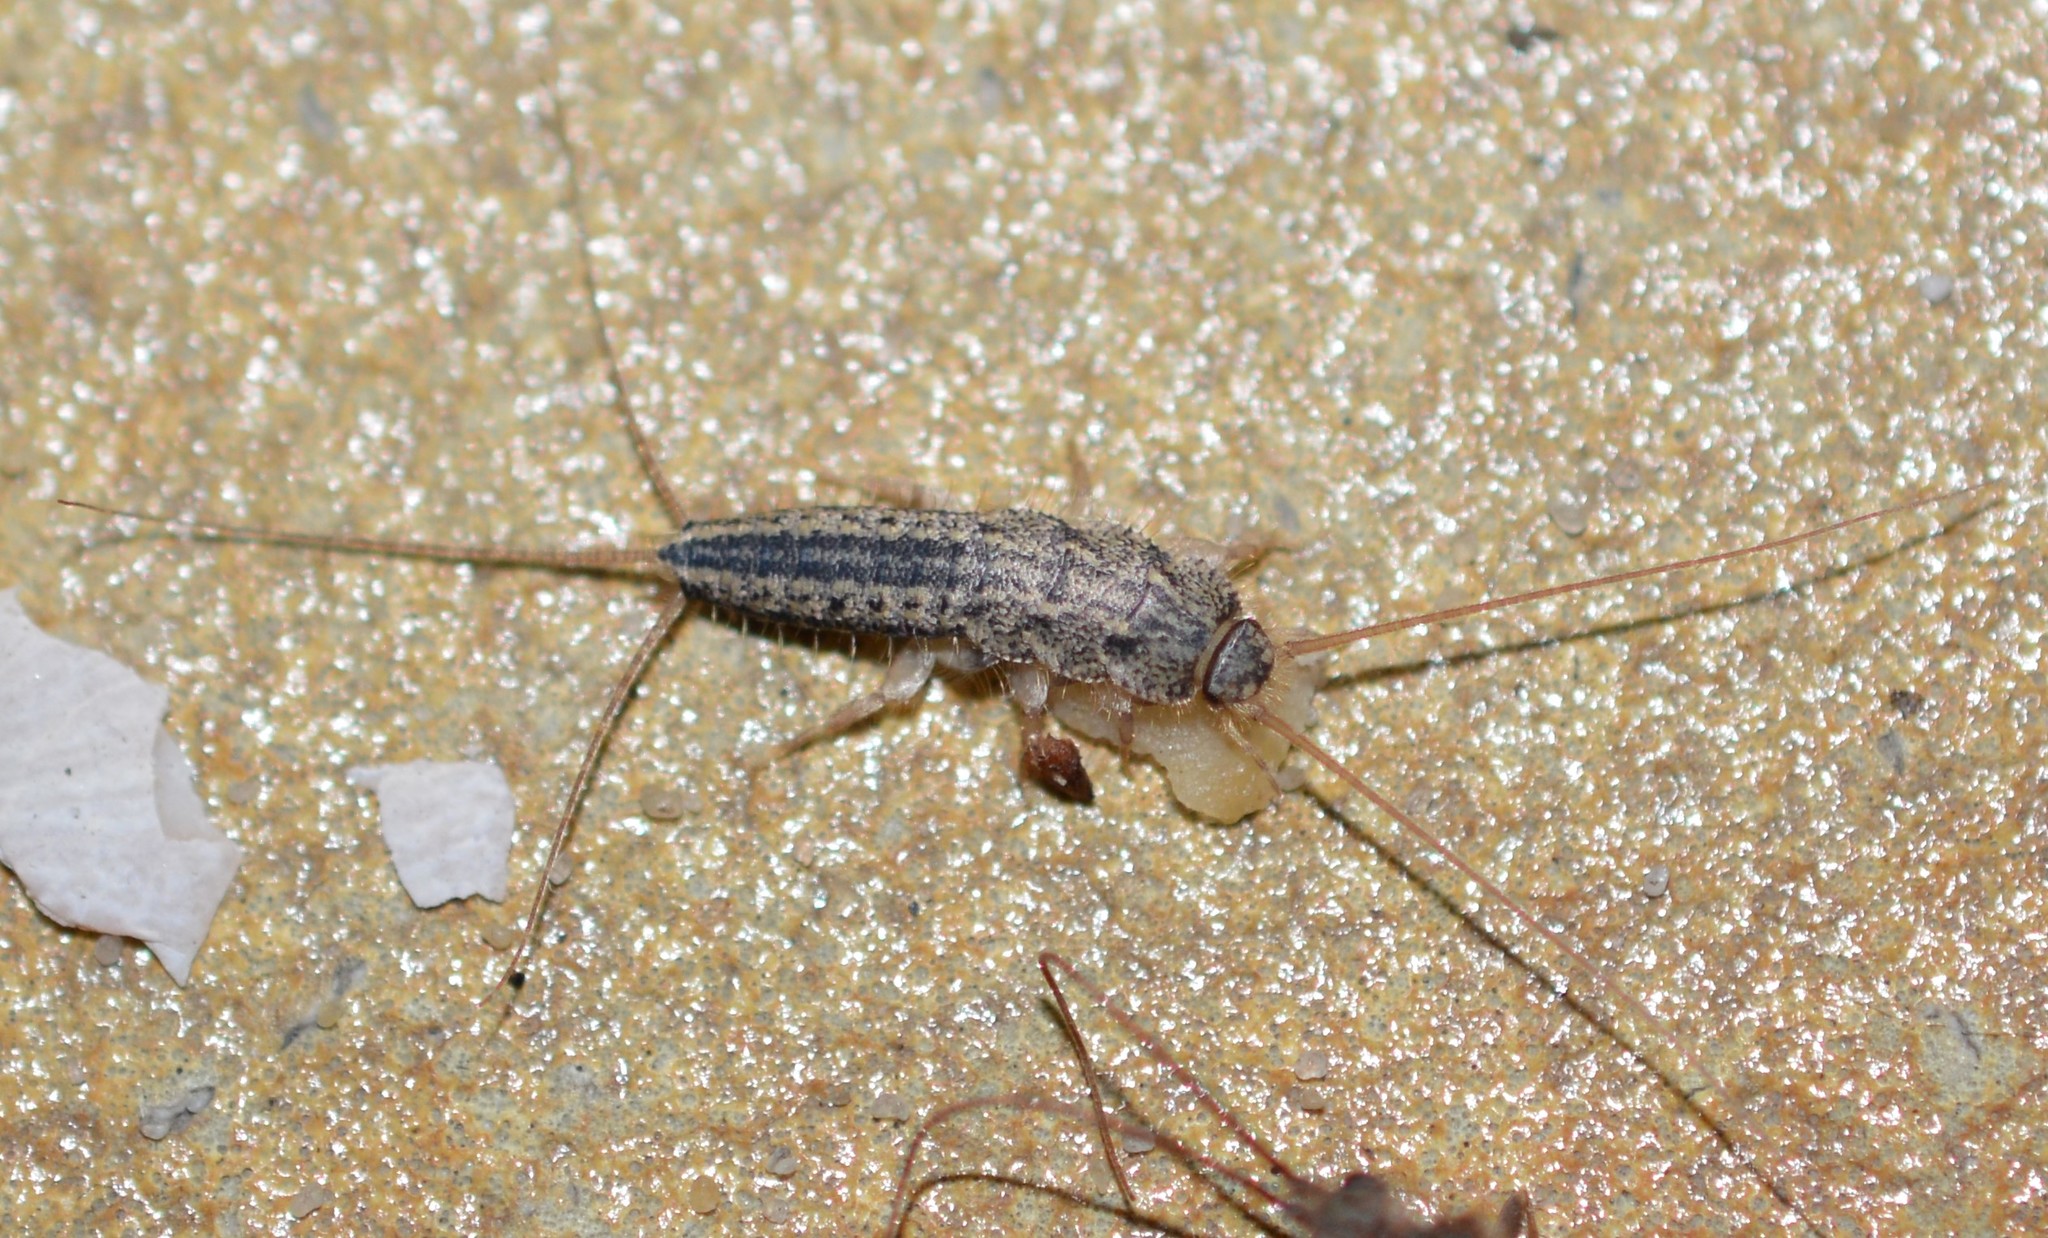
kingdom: Animalia
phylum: Arthropoda
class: Insecta
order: Zygentoma
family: Lepismatidae
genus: Ctenolepisma
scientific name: Ctenolepisma lineata
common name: Four-lined silverfish
